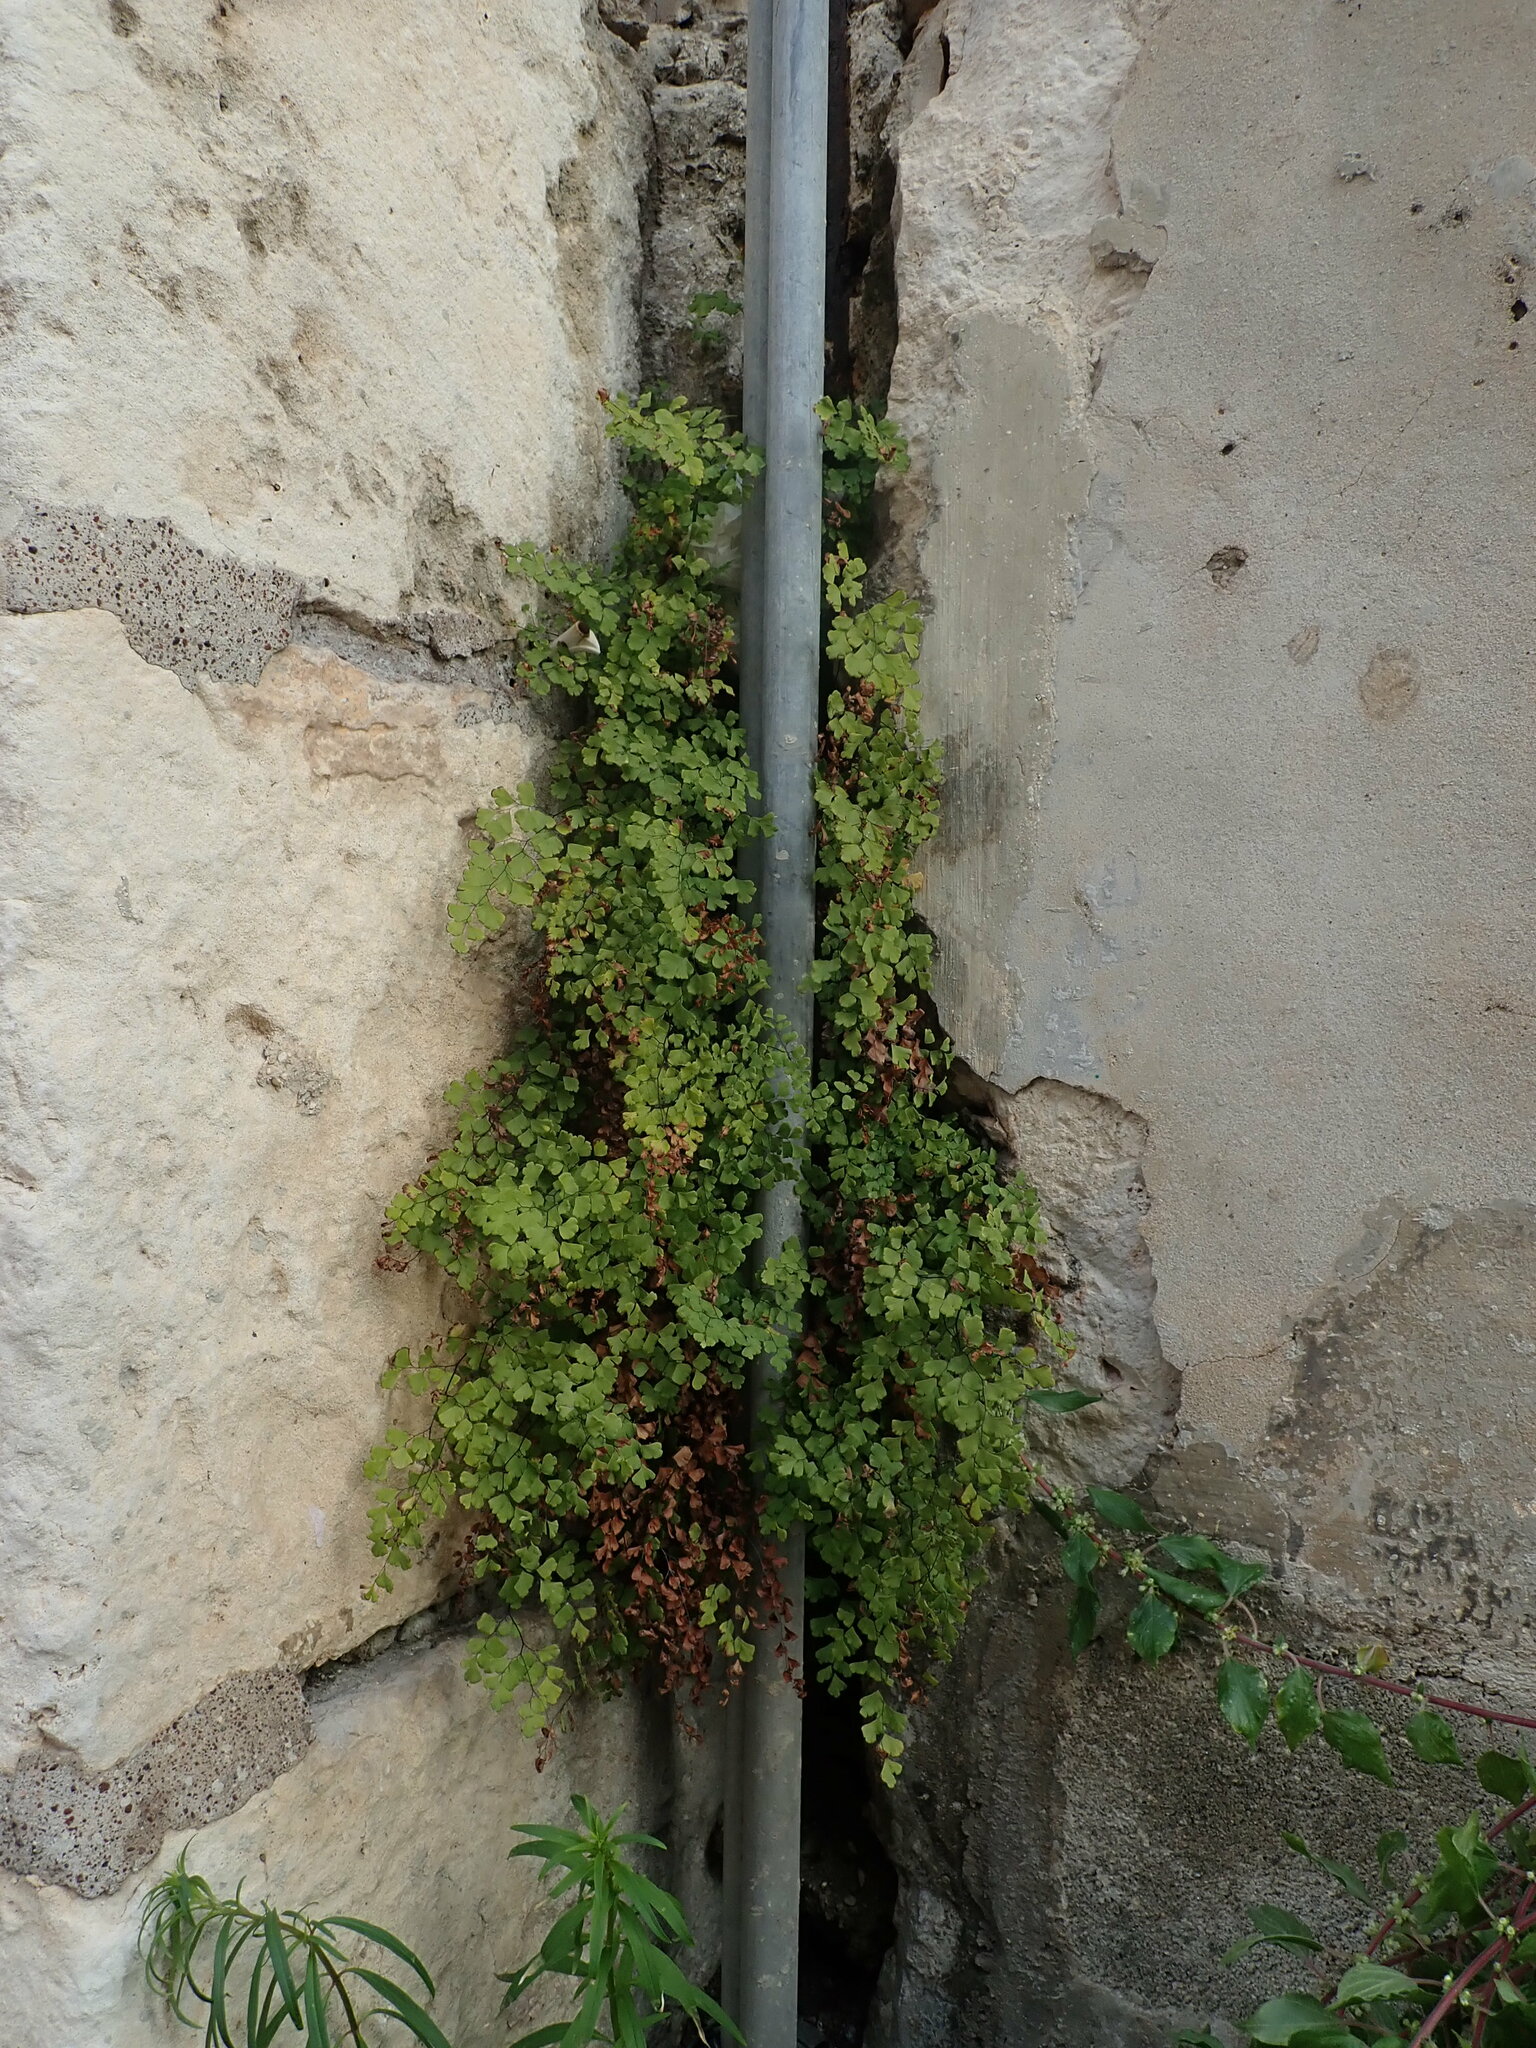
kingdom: Plantae
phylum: Tracheophyta
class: Polypodiopsida
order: Polypodiales
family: Pteridaceae
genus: Adiantum
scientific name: Adiantum capillus-veneris
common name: Maidenhair fern
